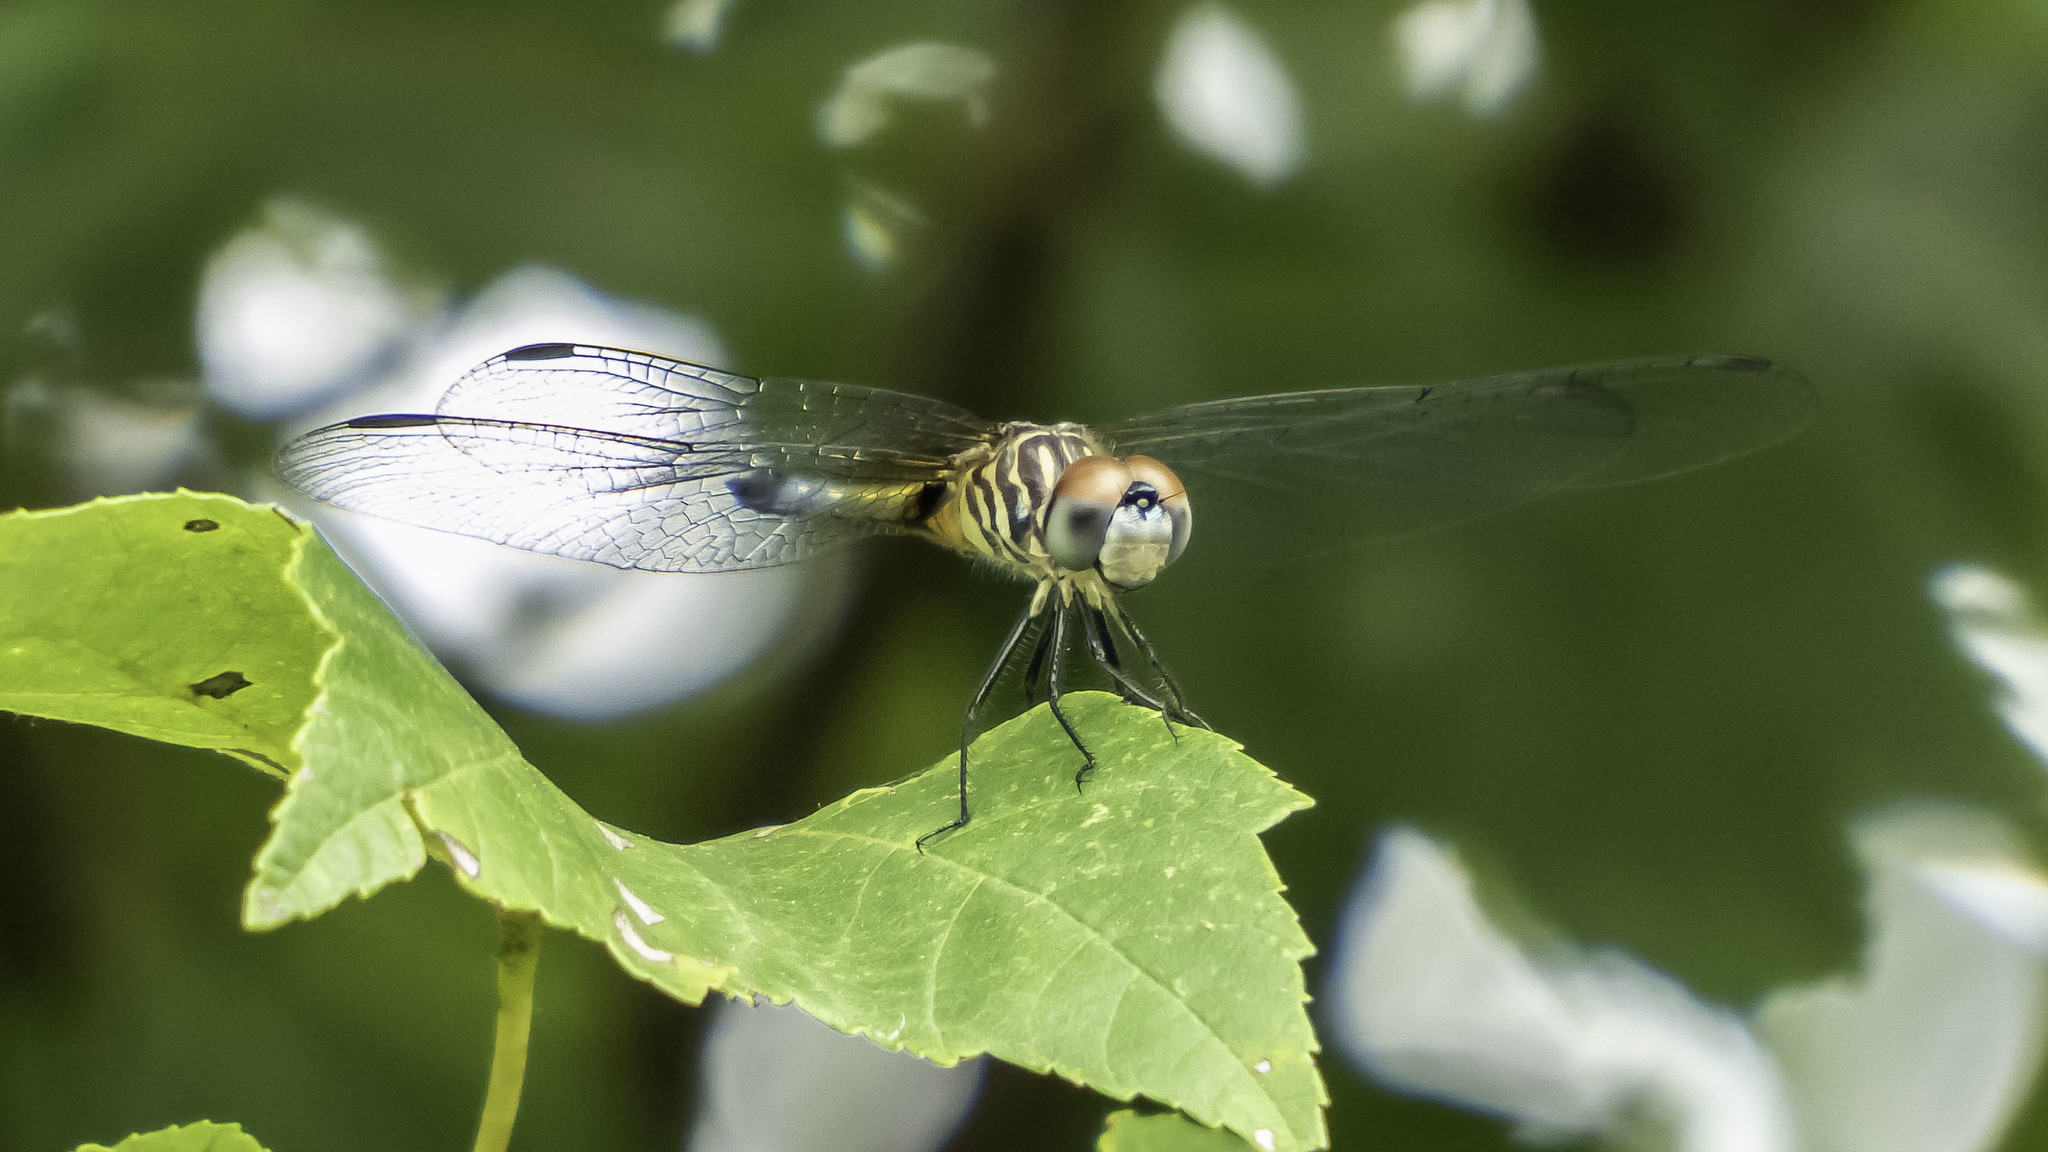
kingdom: Animalia
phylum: Arthropoda
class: Insecta
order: Odonata
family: Libellulidae
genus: Pachydiplax
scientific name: Pachydiplax longipennis
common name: Blue dasher
